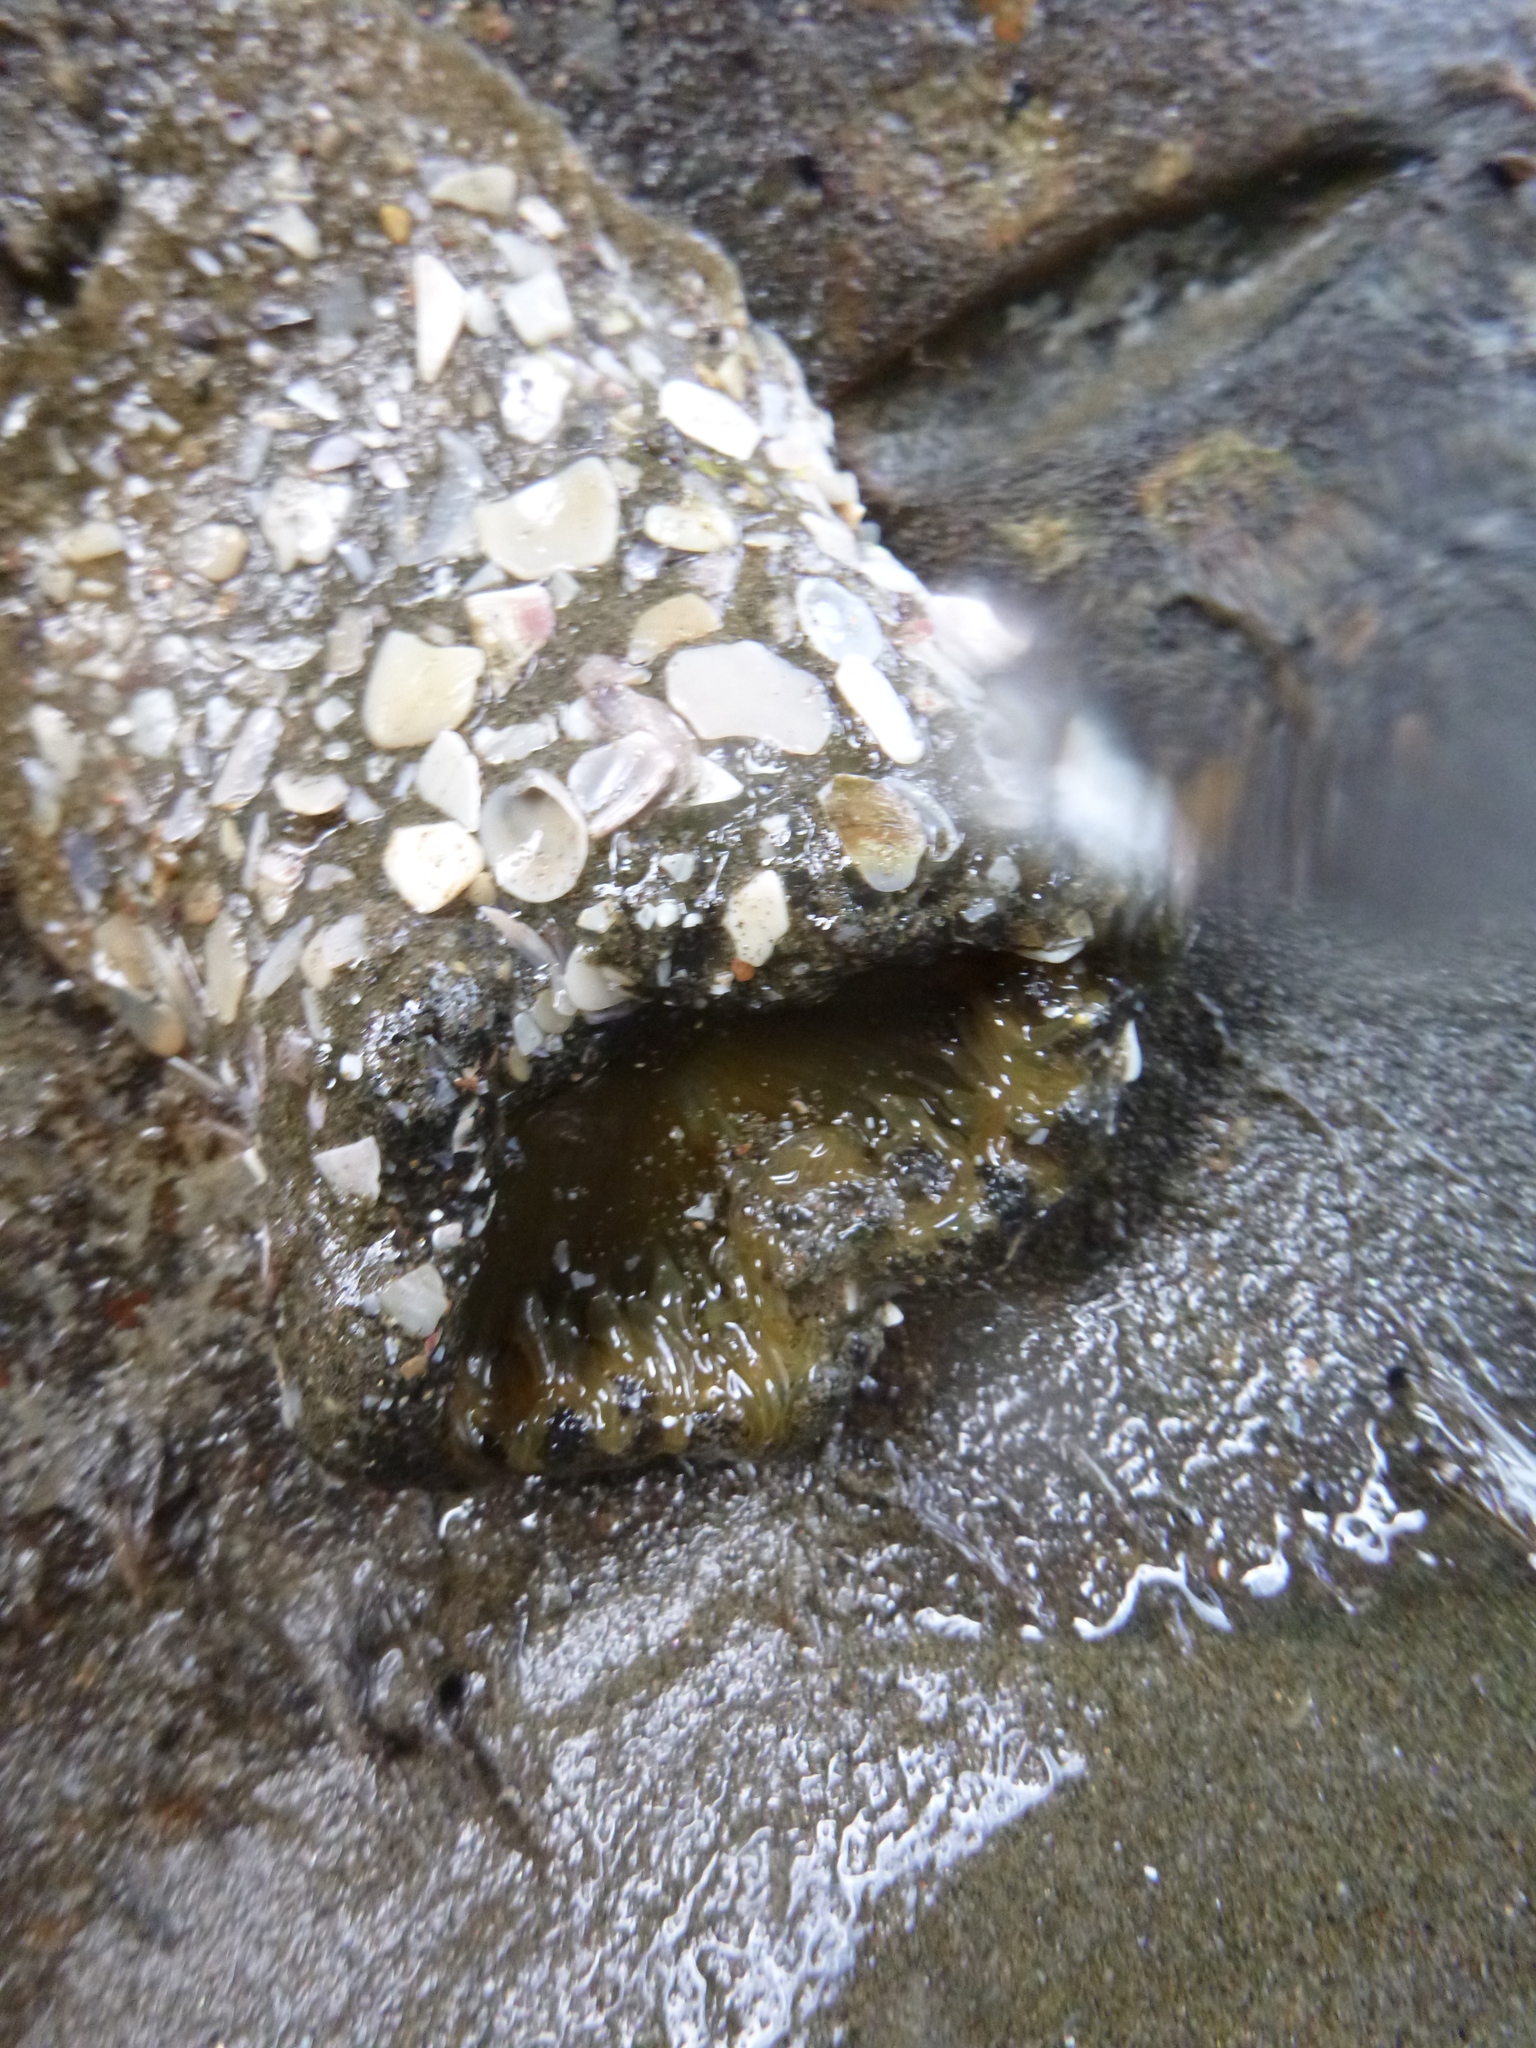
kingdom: Animalia
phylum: Cnidaria
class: Anthozoa
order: Actiniaria
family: Actiniidae
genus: Oulactis
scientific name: Oulactis magna
